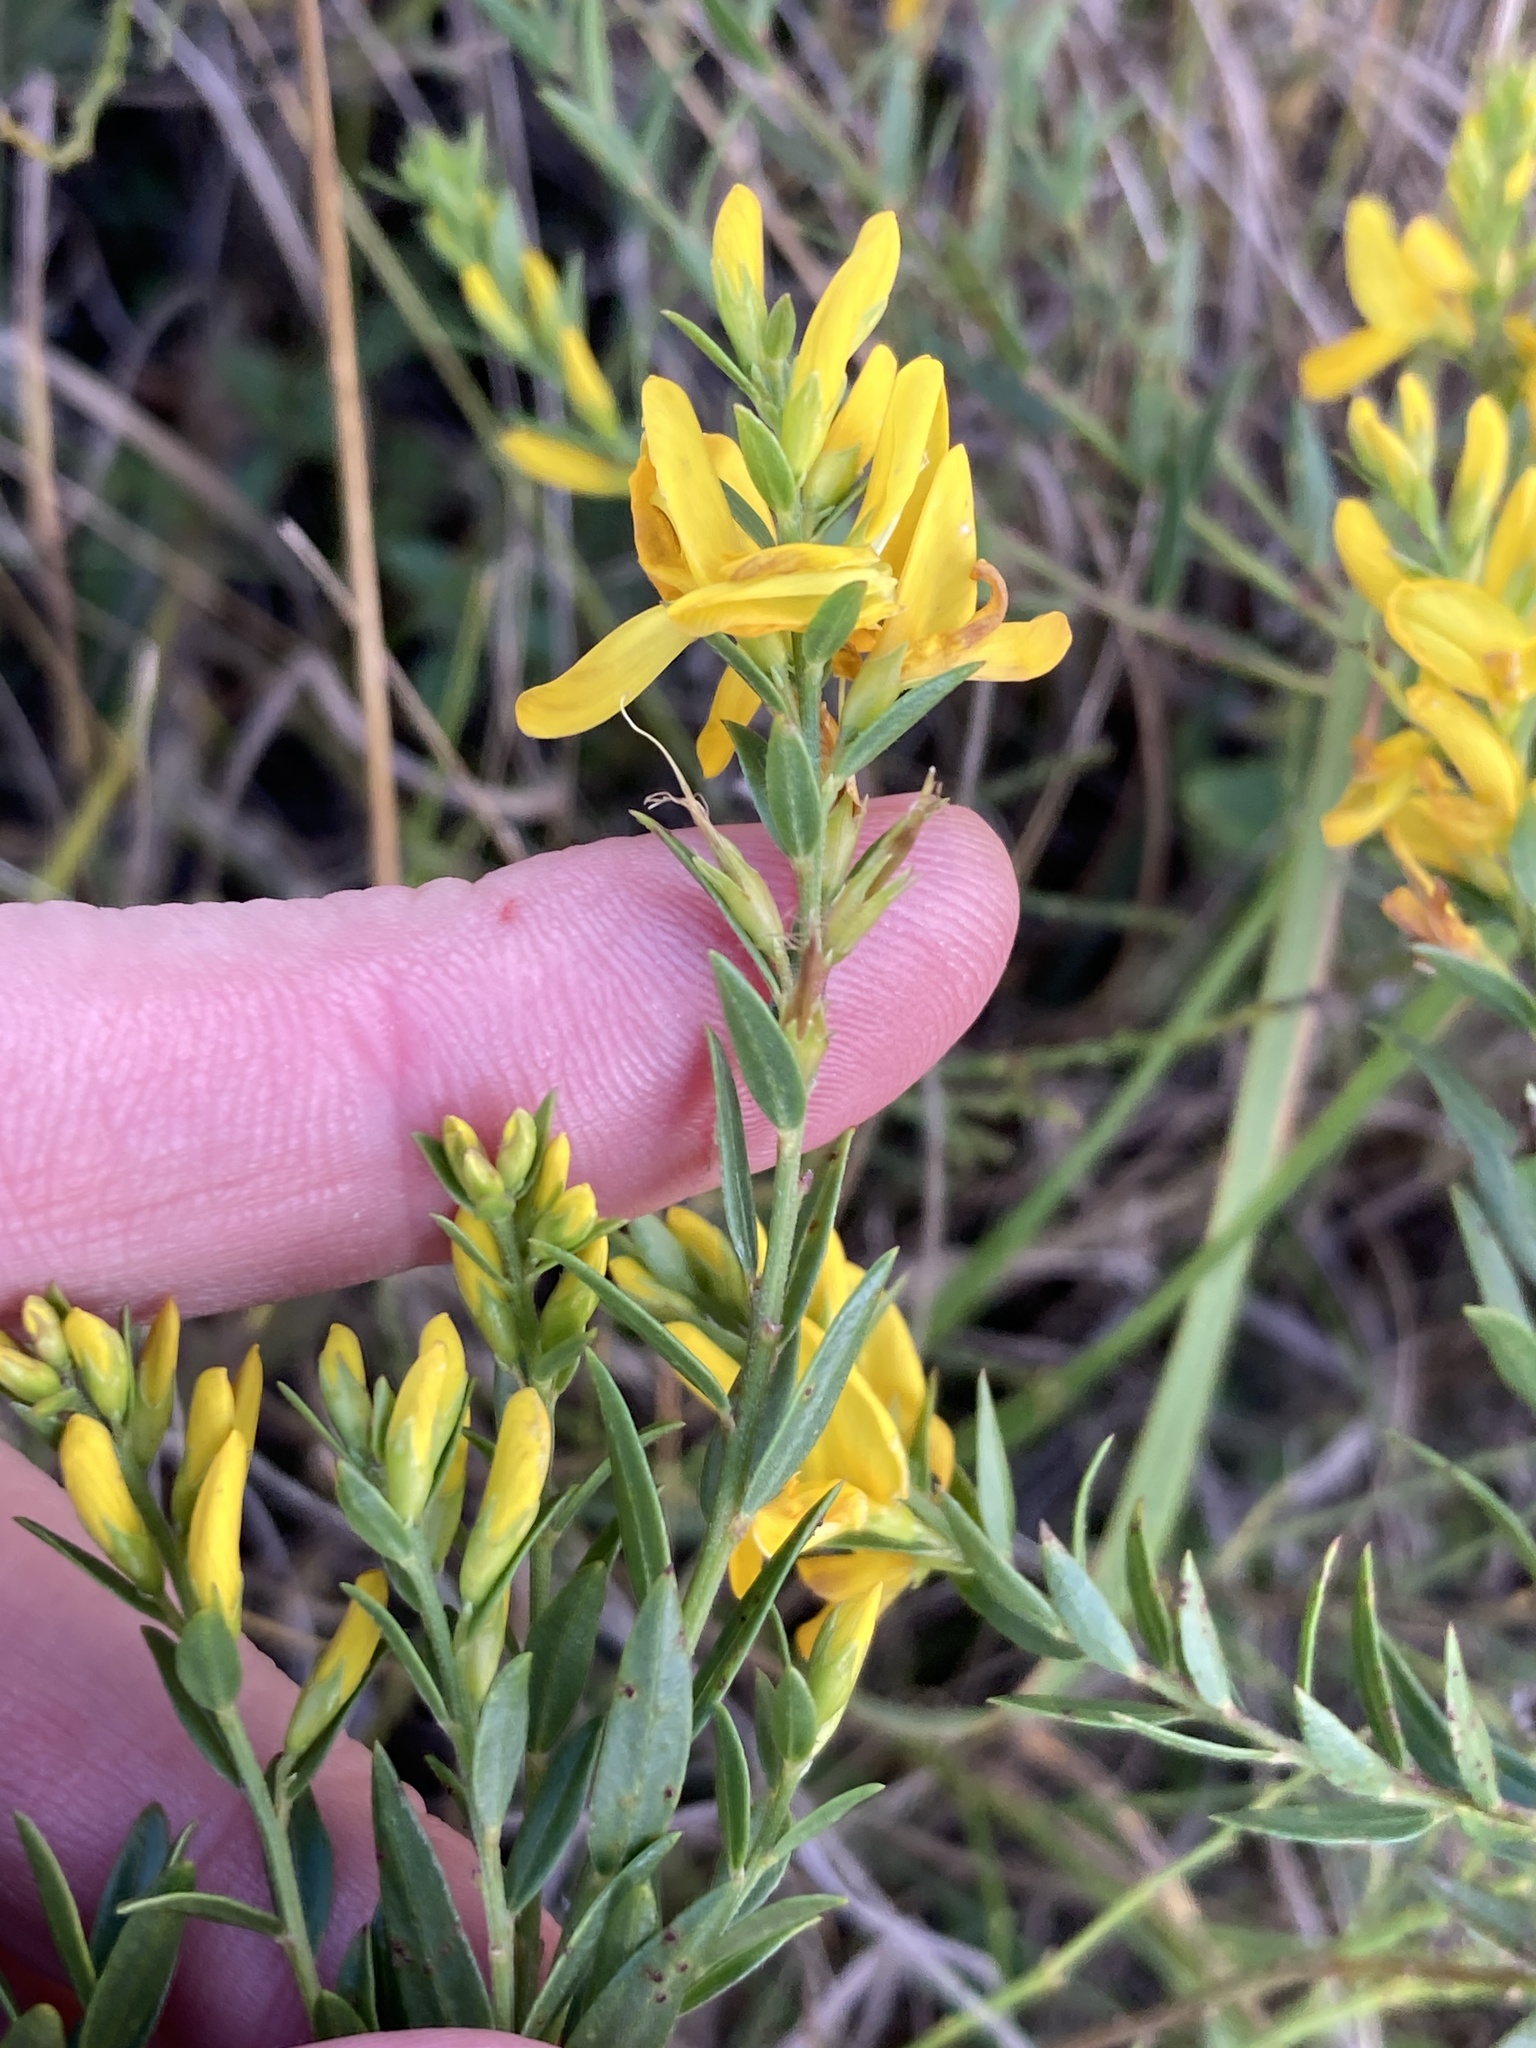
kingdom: Plantae
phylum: Tracheophyta
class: Magnoliopsida
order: Fabales
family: Fabaceae
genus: Genista
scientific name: Genista tinctoria
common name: Dyer's greenweed
